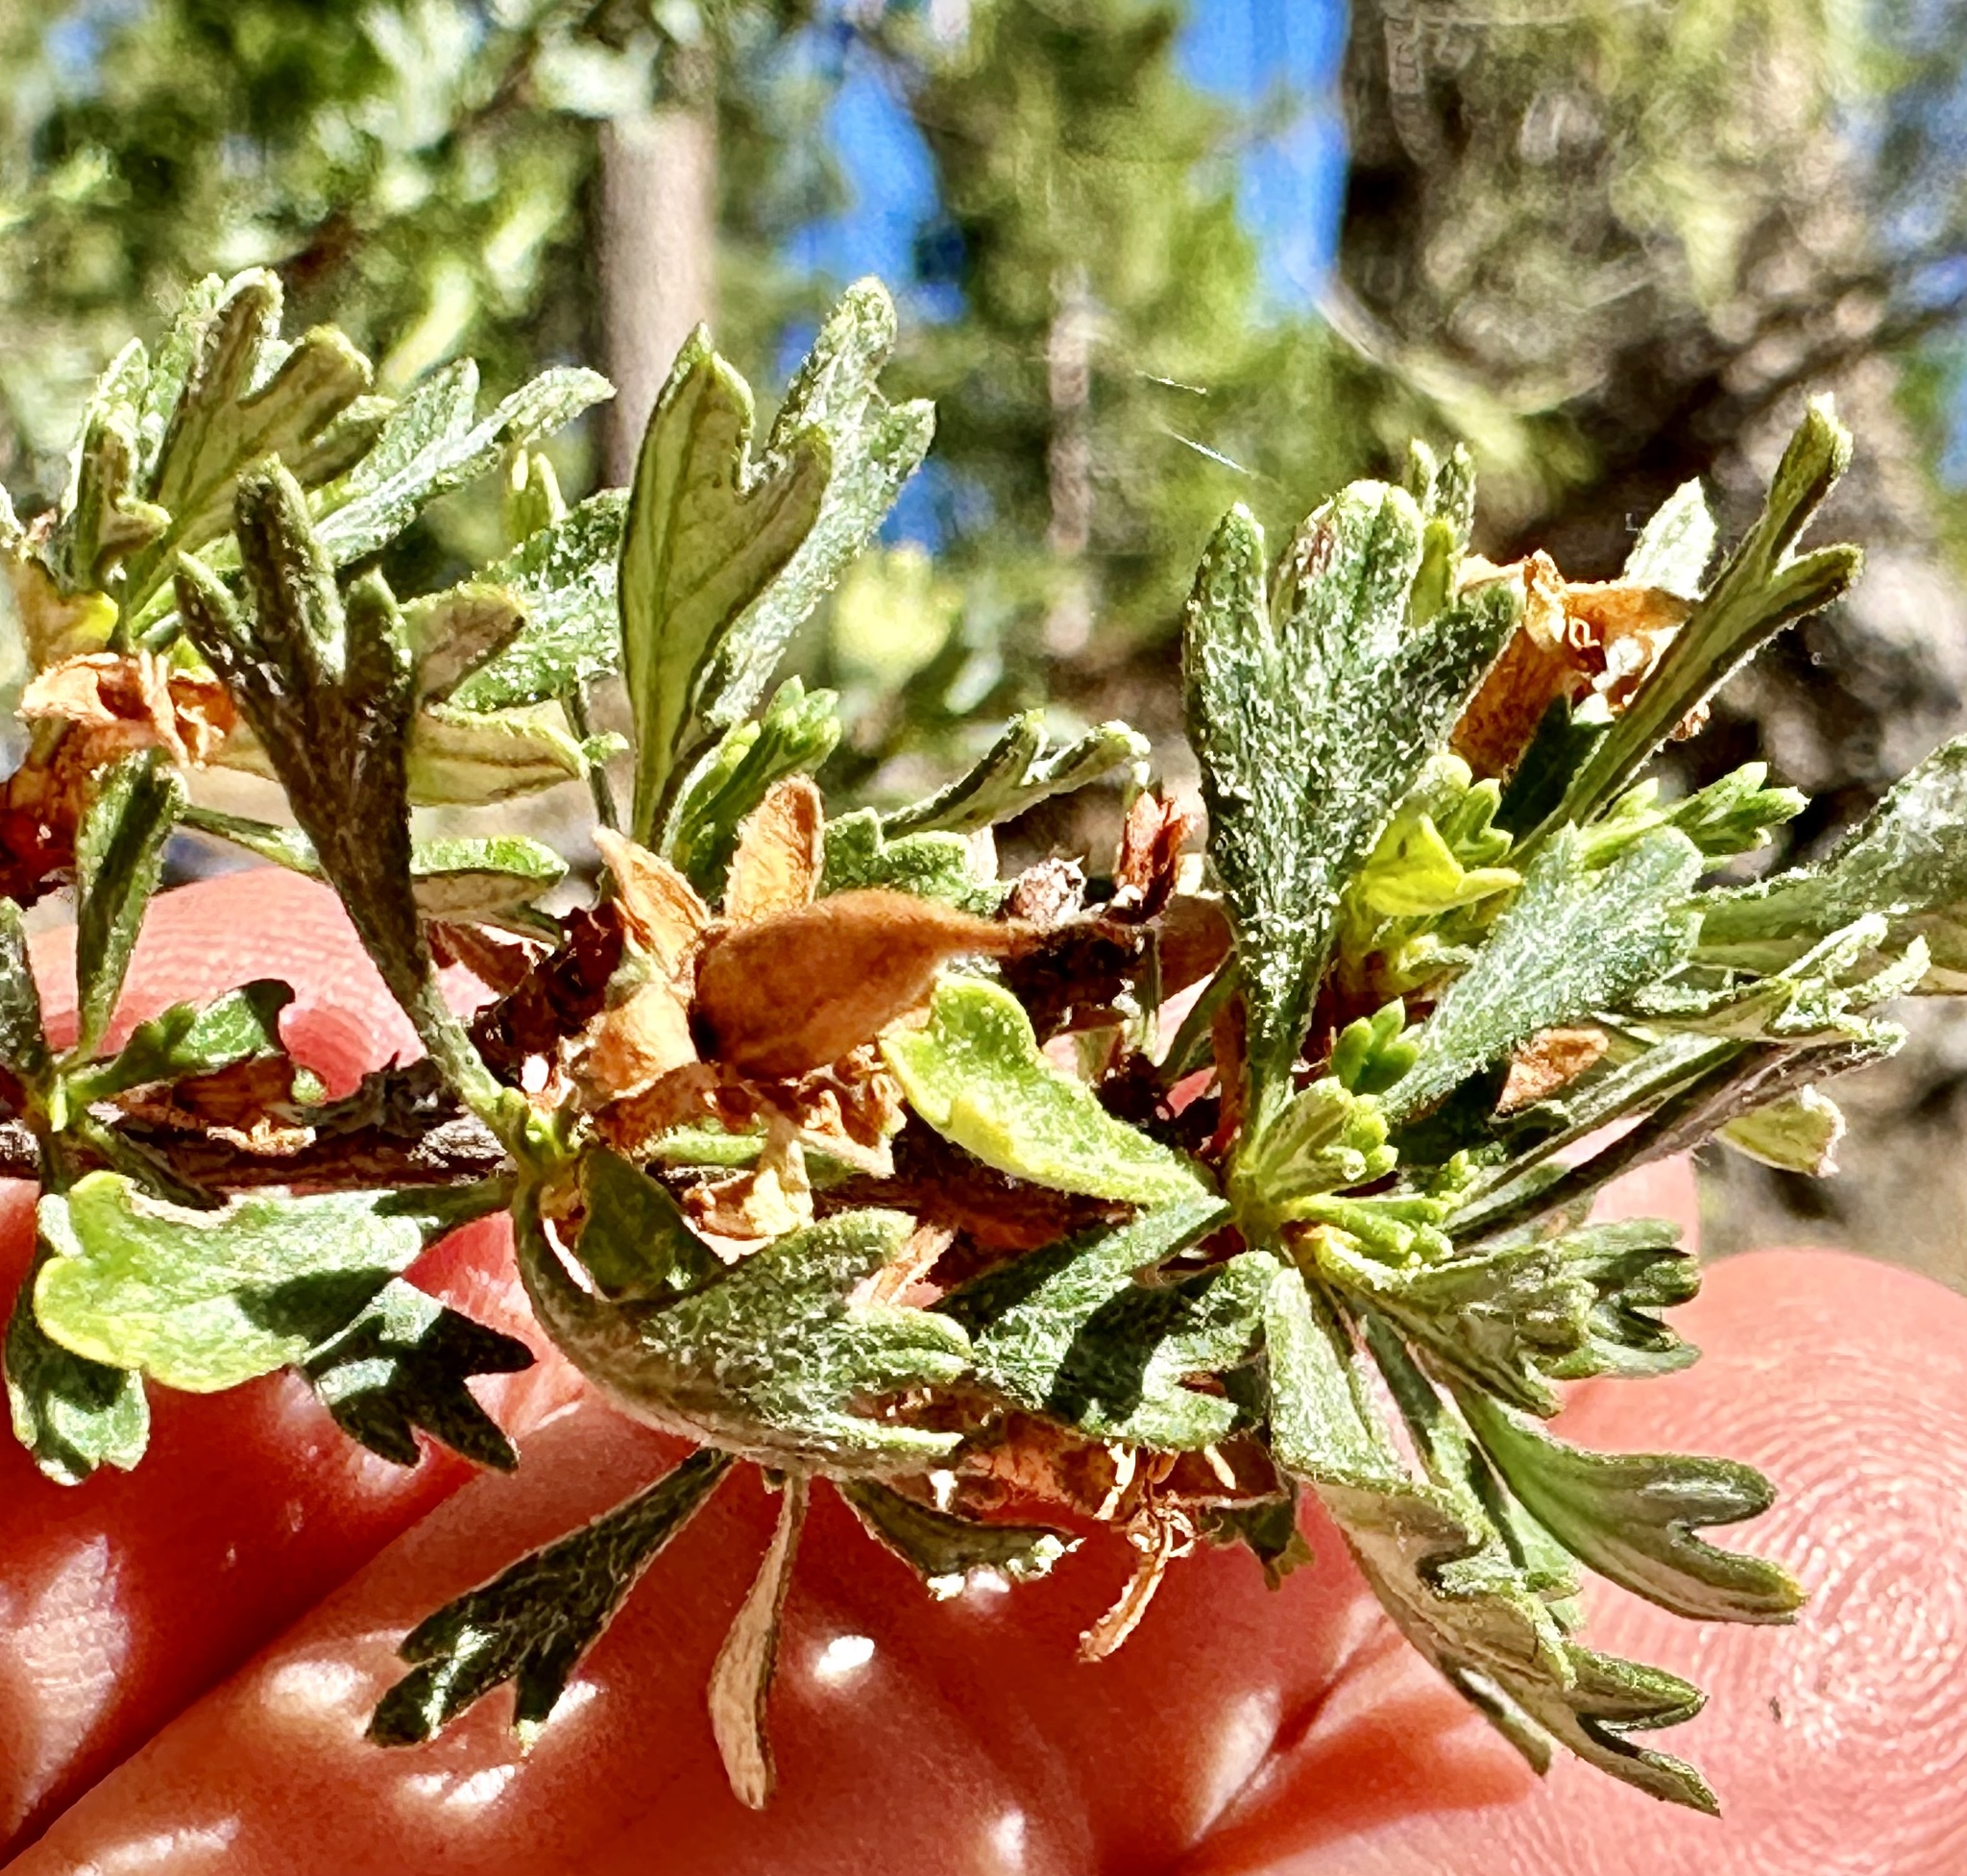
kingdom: Plantae
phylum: Tracheophyta
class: Magnoliopsida
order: Rosales
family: Rosaceae
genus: Purshia
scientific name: Purshia tridentata
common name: Antelope bitterbrush
